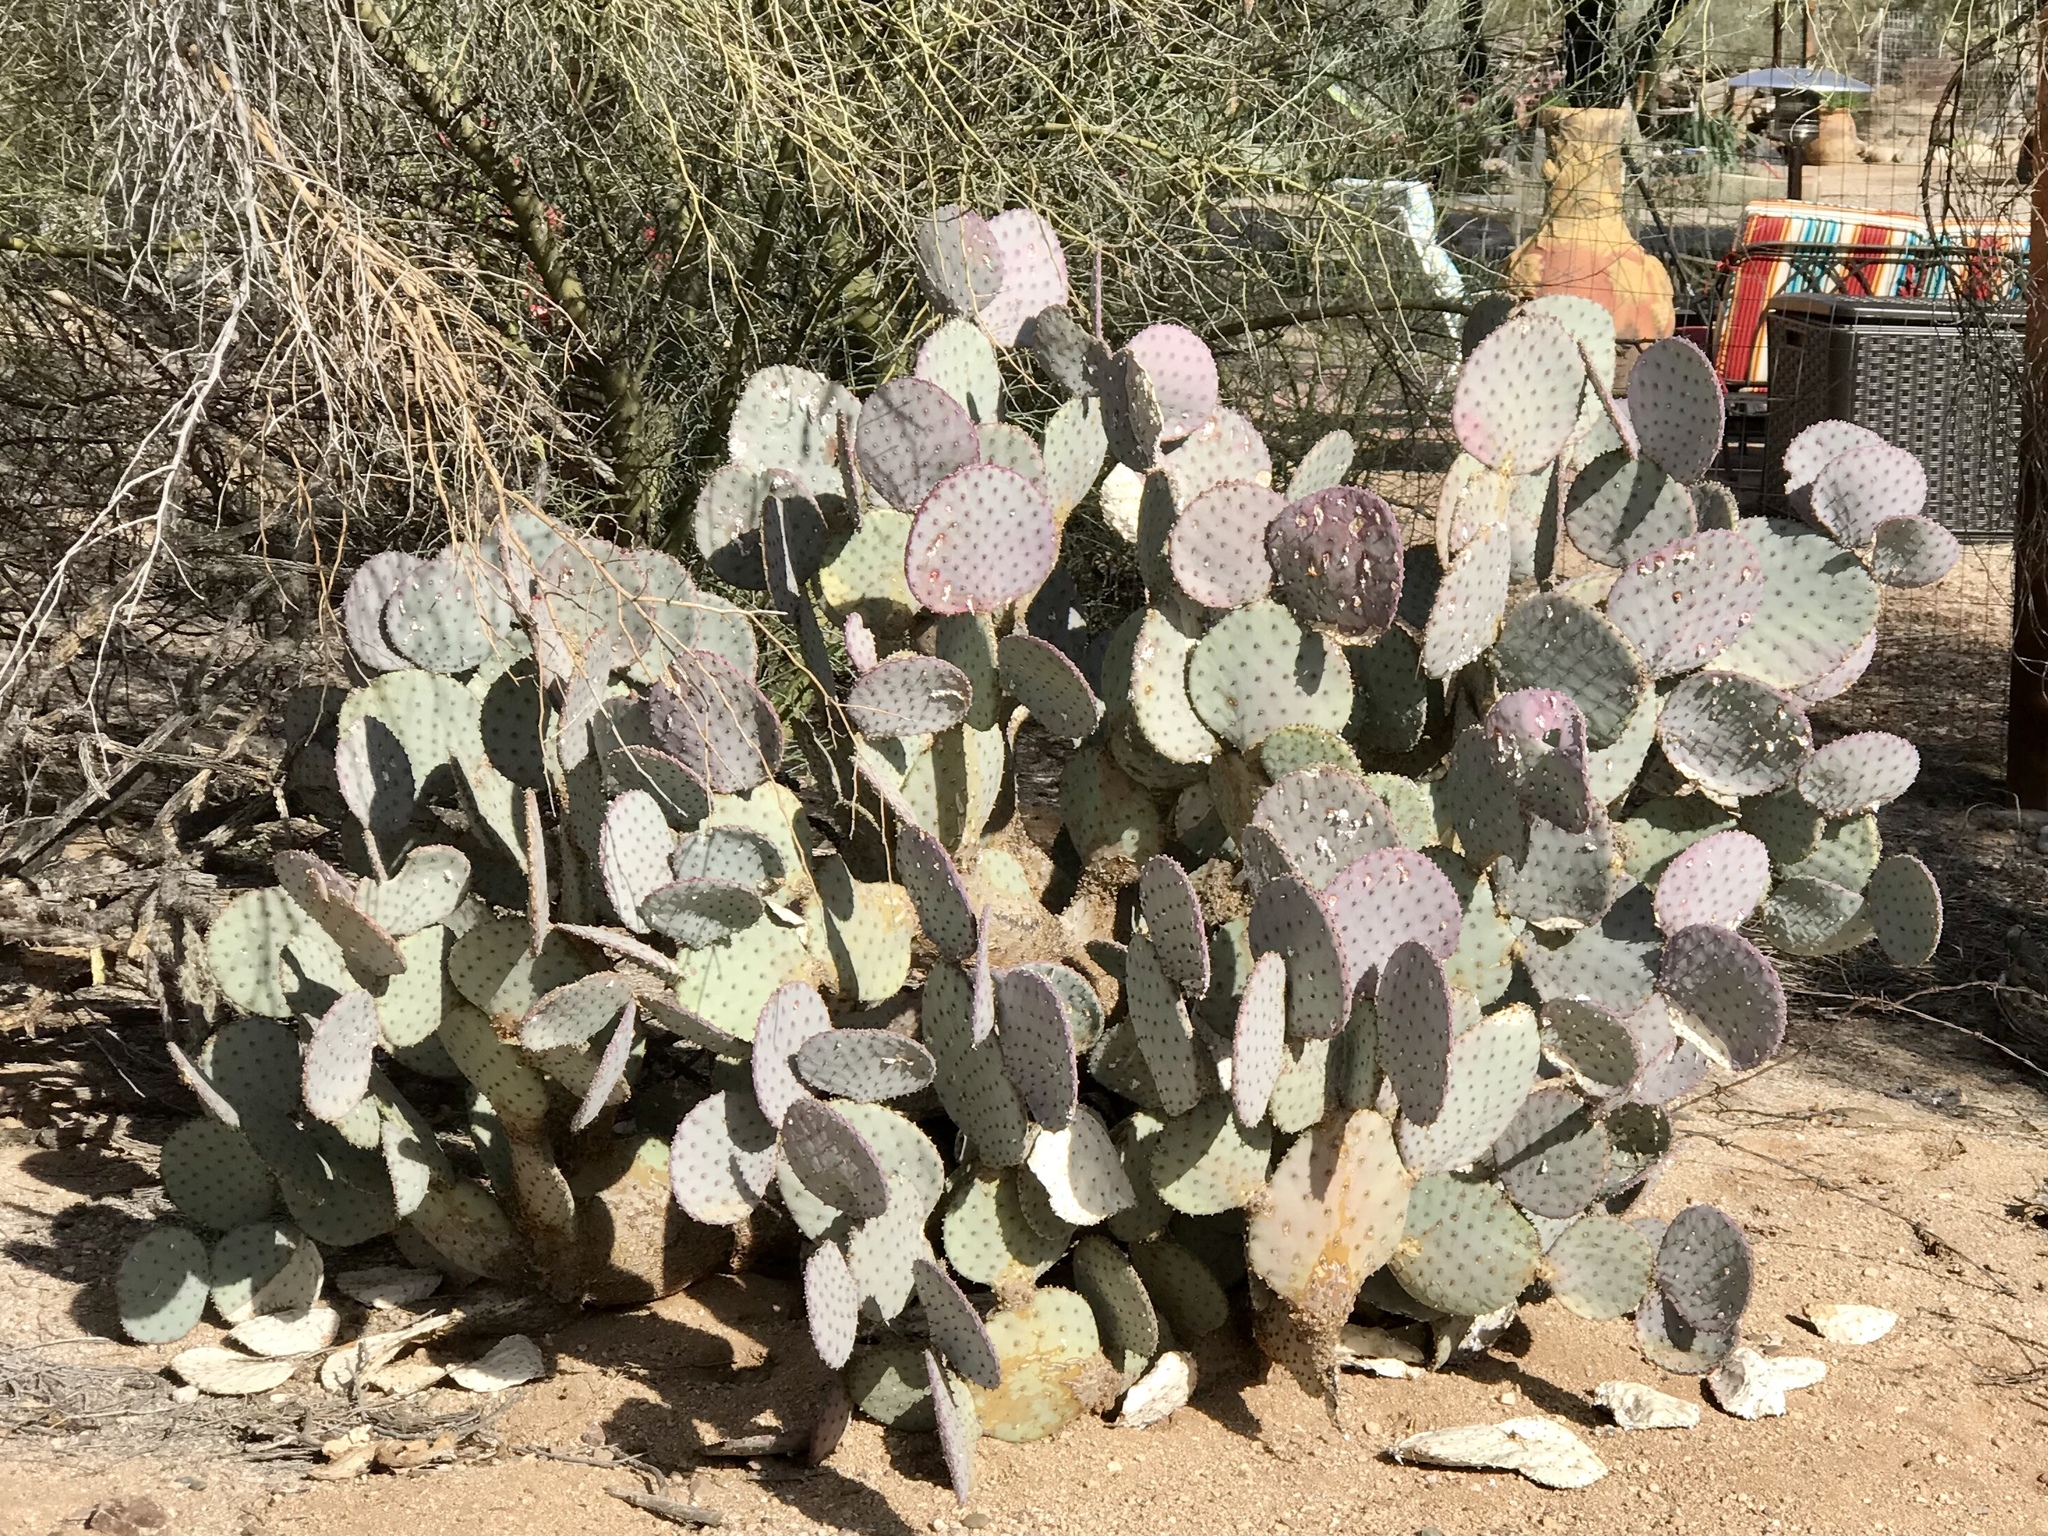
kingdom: Plantae
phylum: Tracheophyta
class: Magnoliopsida
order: Caryophyllales
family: Cactaceae
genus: Opuntia
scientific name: Opuntia gosseliniana
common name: Violet prickly-pear
